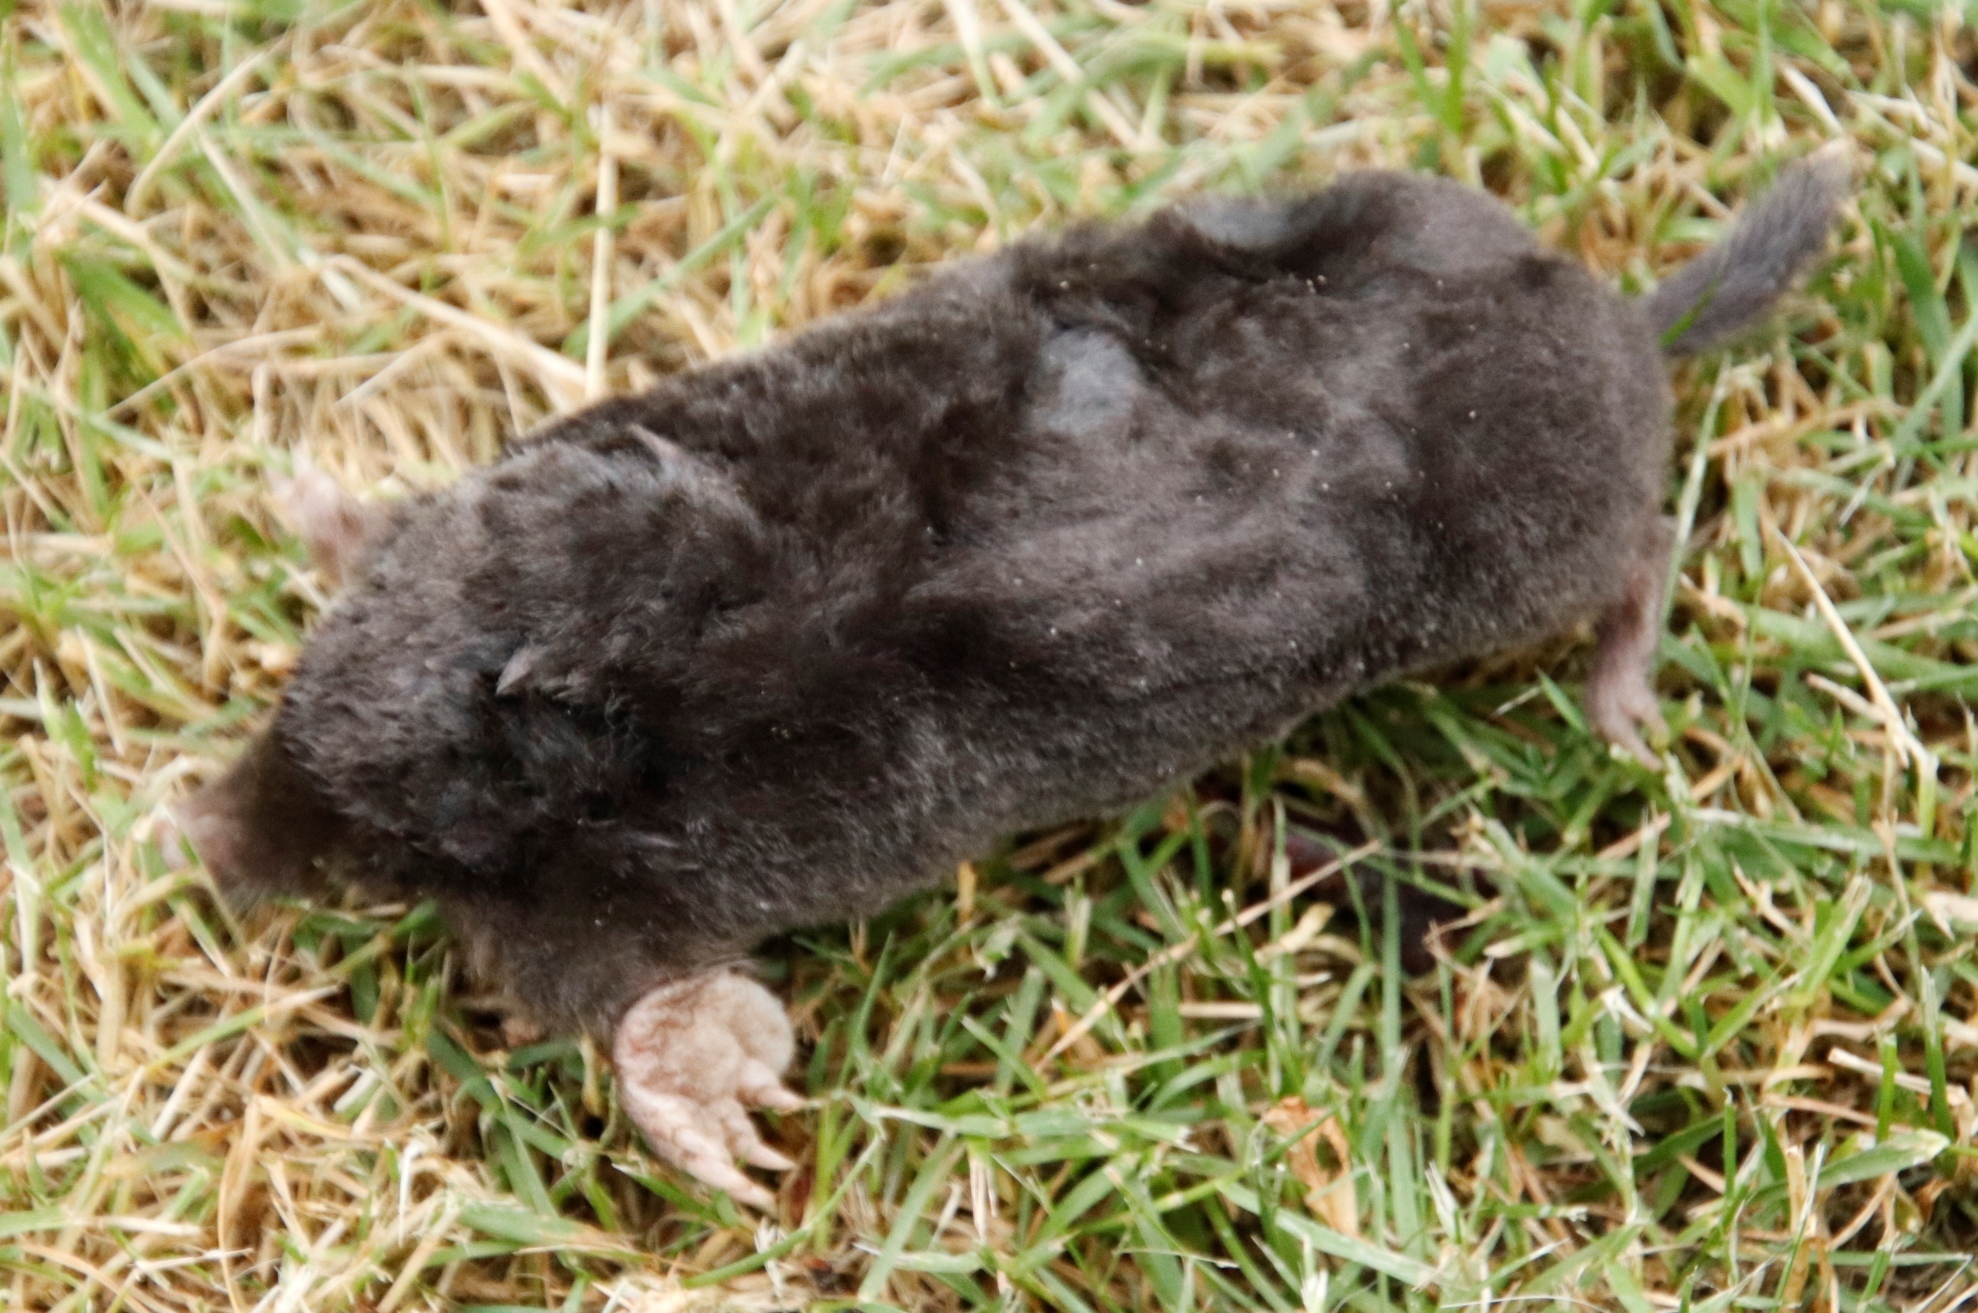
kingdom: Animalia
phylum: Chordata
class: Mammalia
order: Soricomorpha
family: Talpidae
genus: Talpa
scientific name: Talpa europaea
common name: European mole
